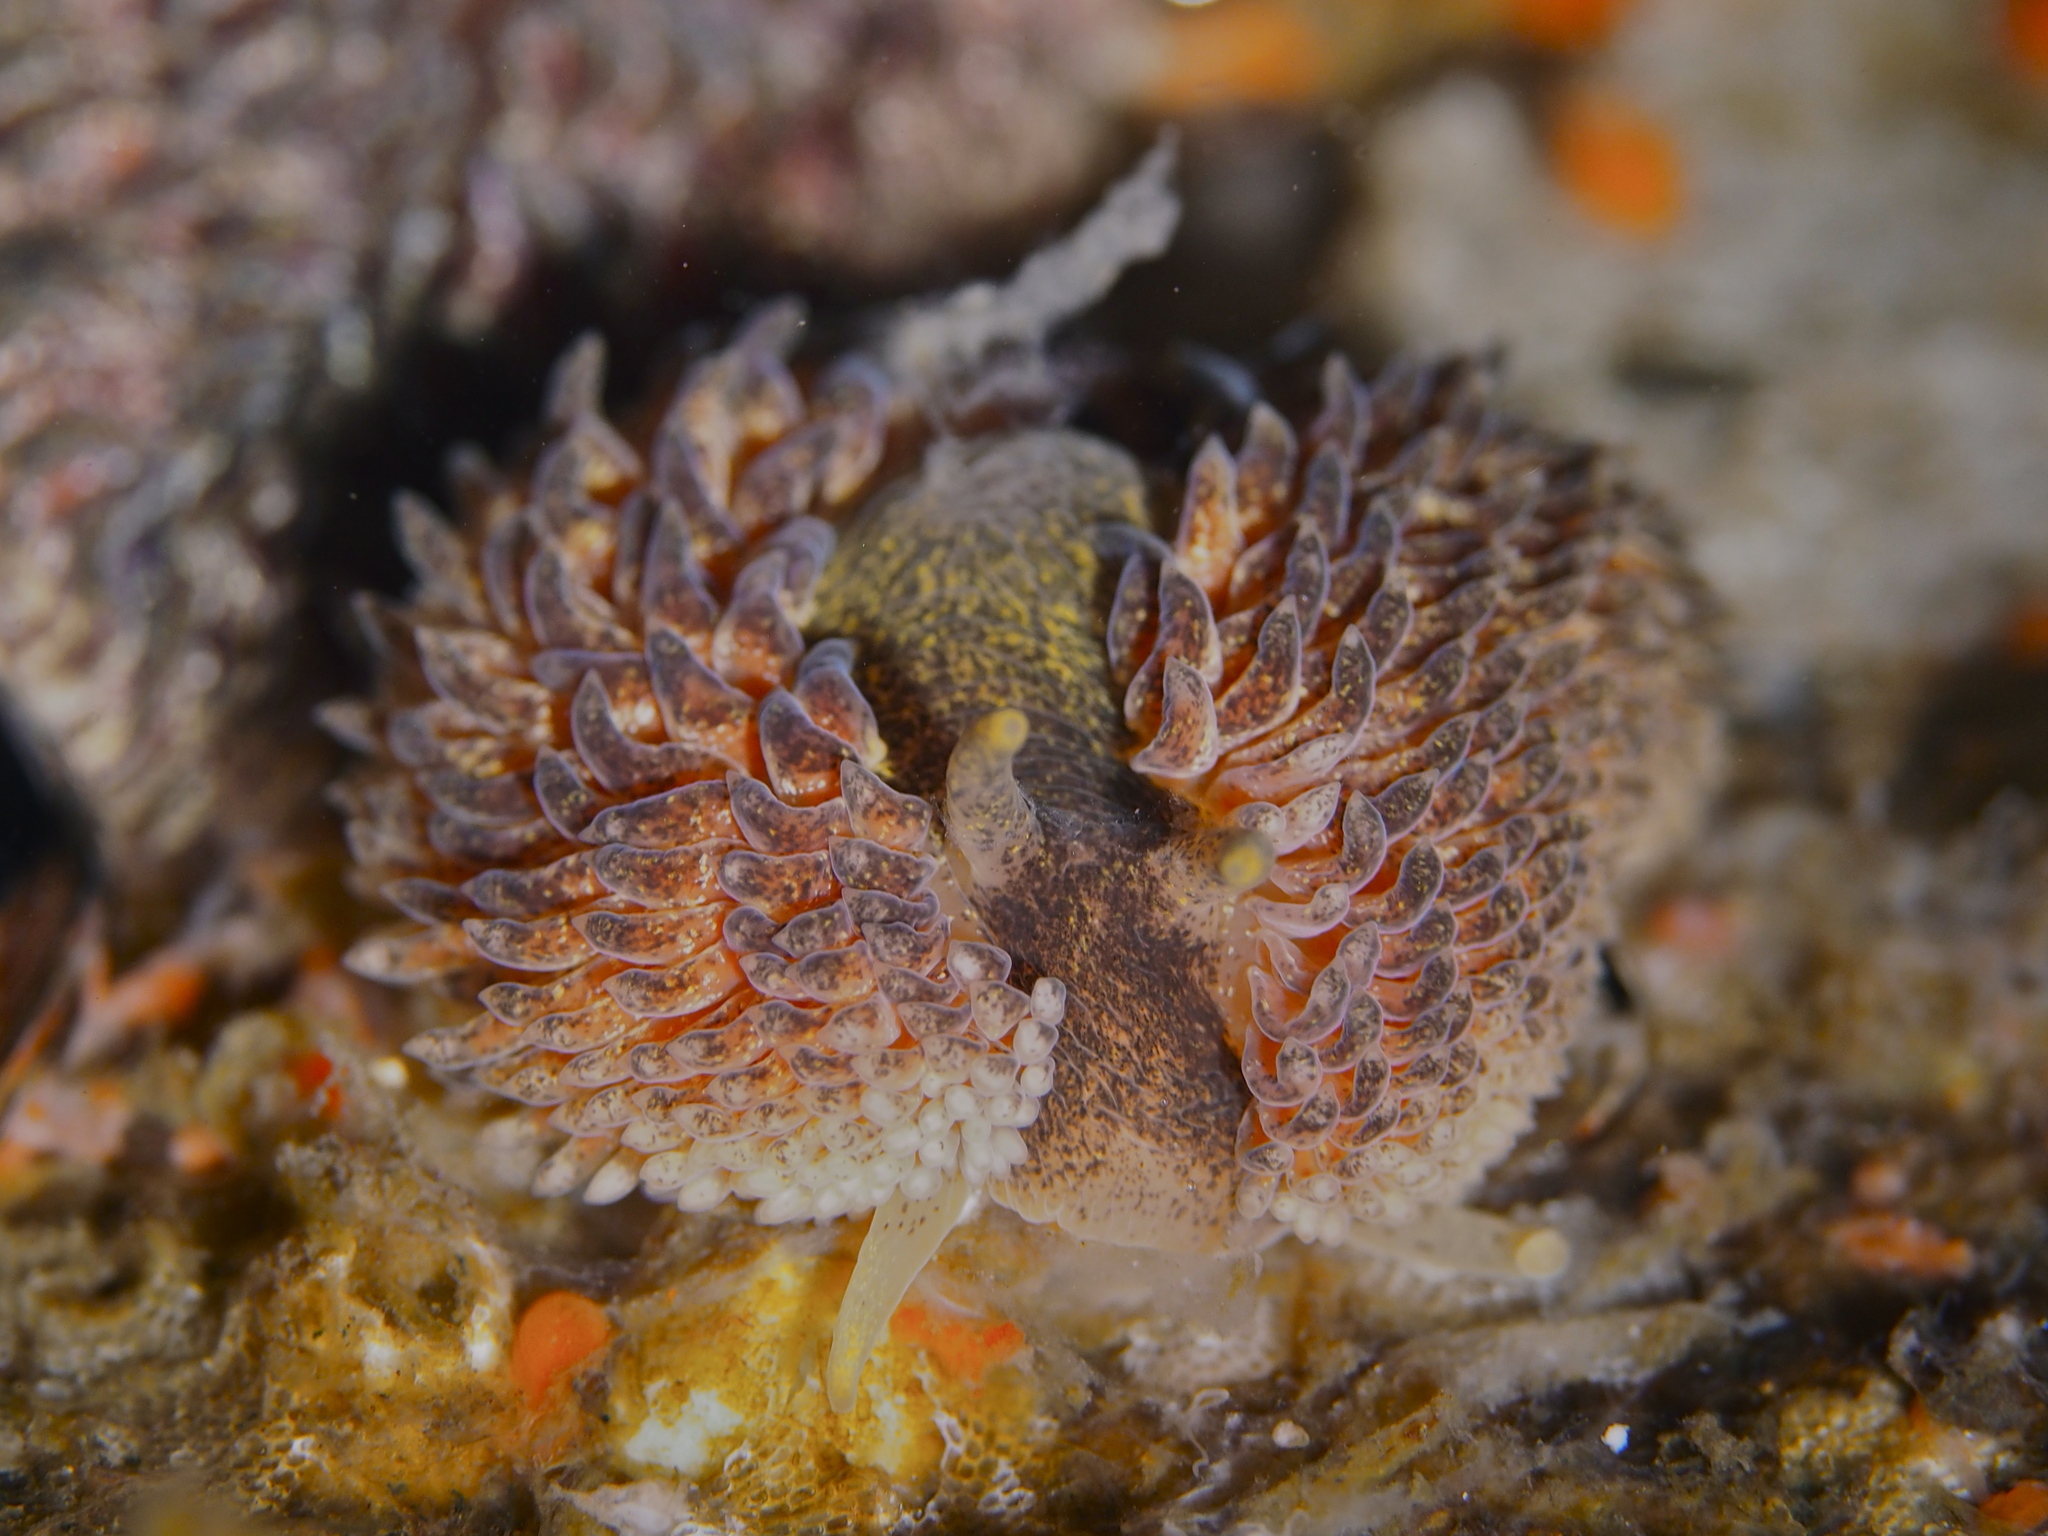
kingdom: Animalia
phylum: Mollusca
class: Gastropoda
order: Nudibranchia
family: Aeolidiidae
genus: Aeolidia
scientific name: Aeolidia papillosa
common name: Common grey sea slug
